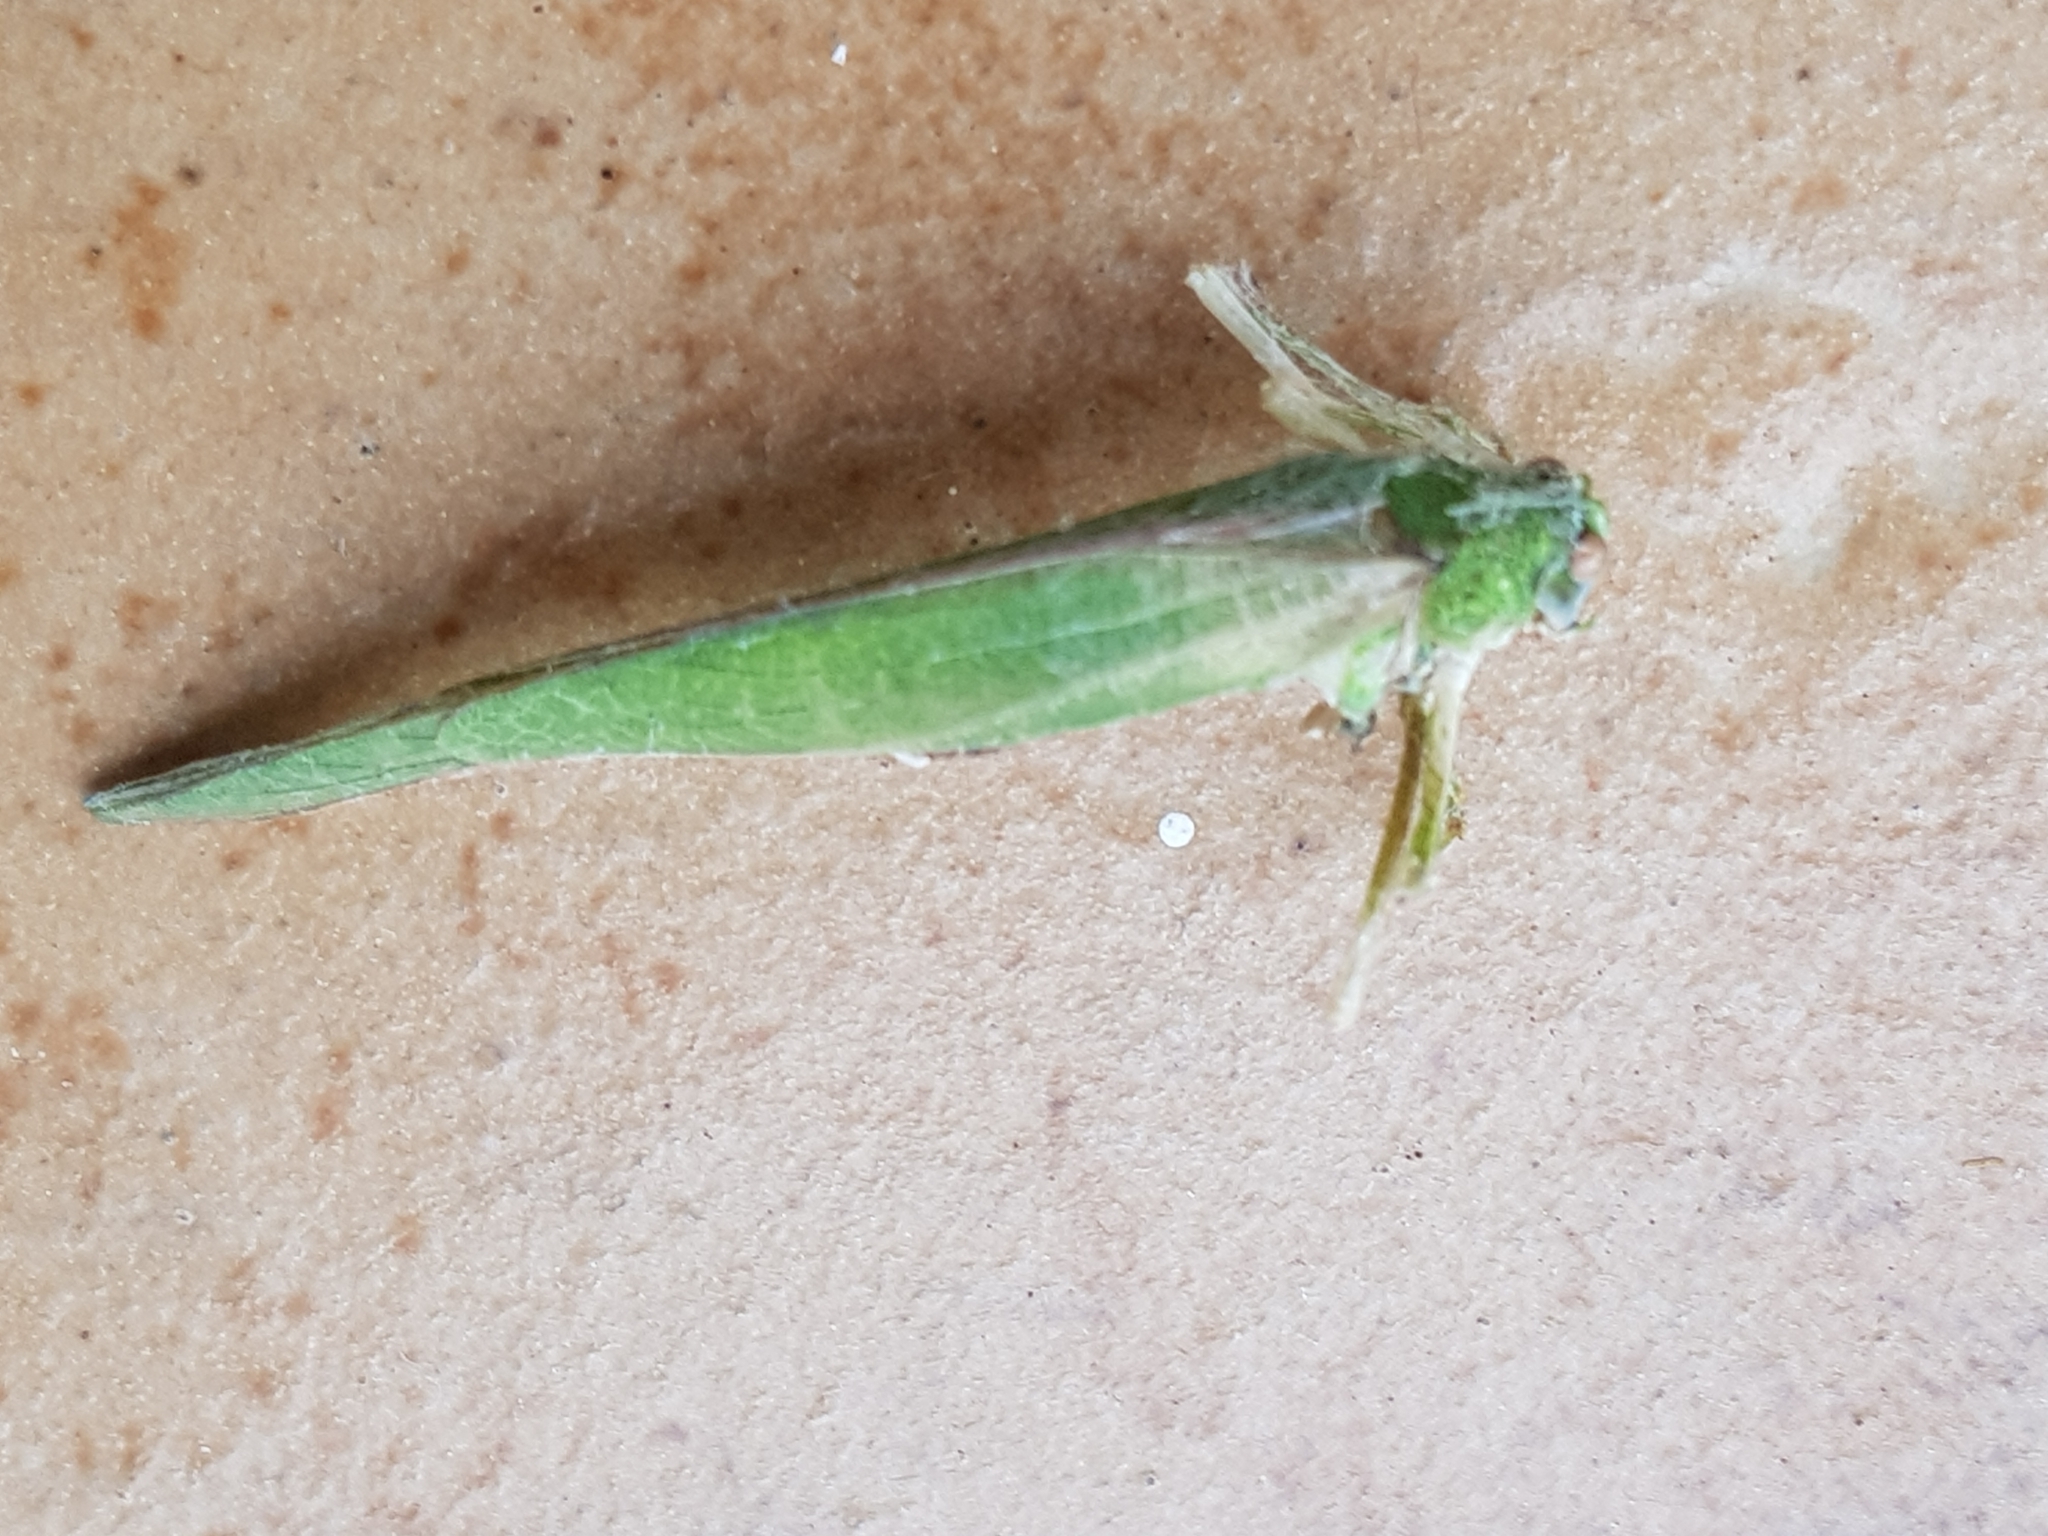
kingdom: Animalia
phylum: Arthropoda
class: Insecta
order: Orthoptera
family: Tettigoniidae
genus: Phaneroptera
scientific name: Phaneroptera sparsa
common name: Sickle-bearing leaf katydid
